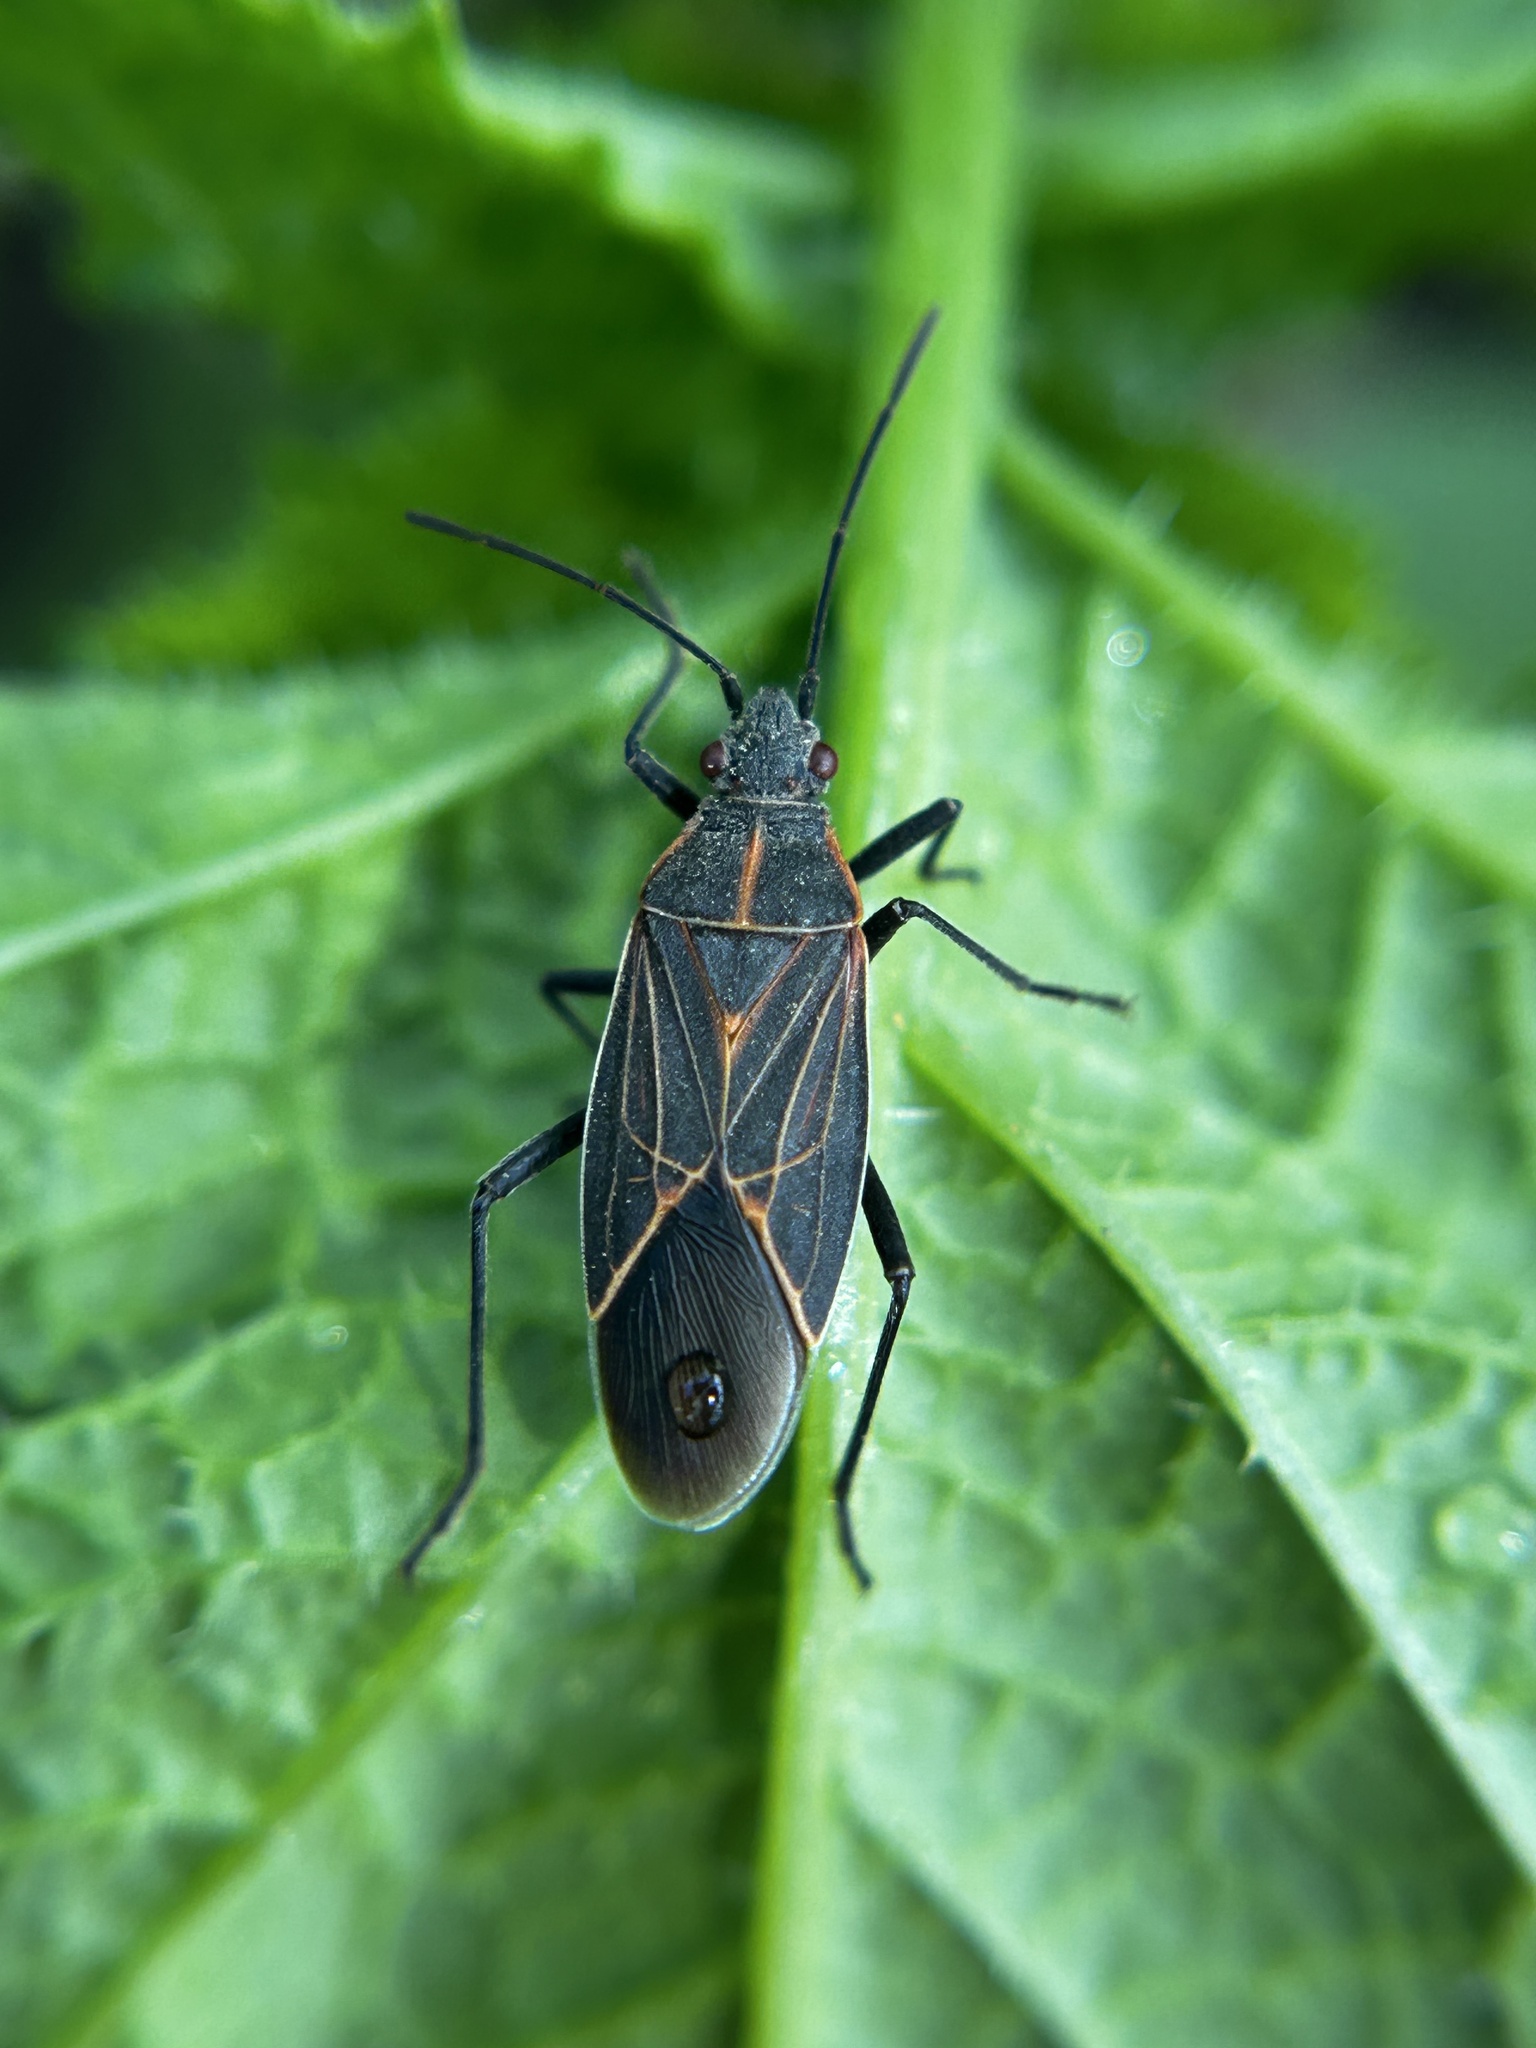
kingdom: Animalia
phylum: Arthropoda
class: Insecta
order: Hemiptera
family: Rhopalidae
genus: Boisea
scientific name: Boisea rubrolineata
